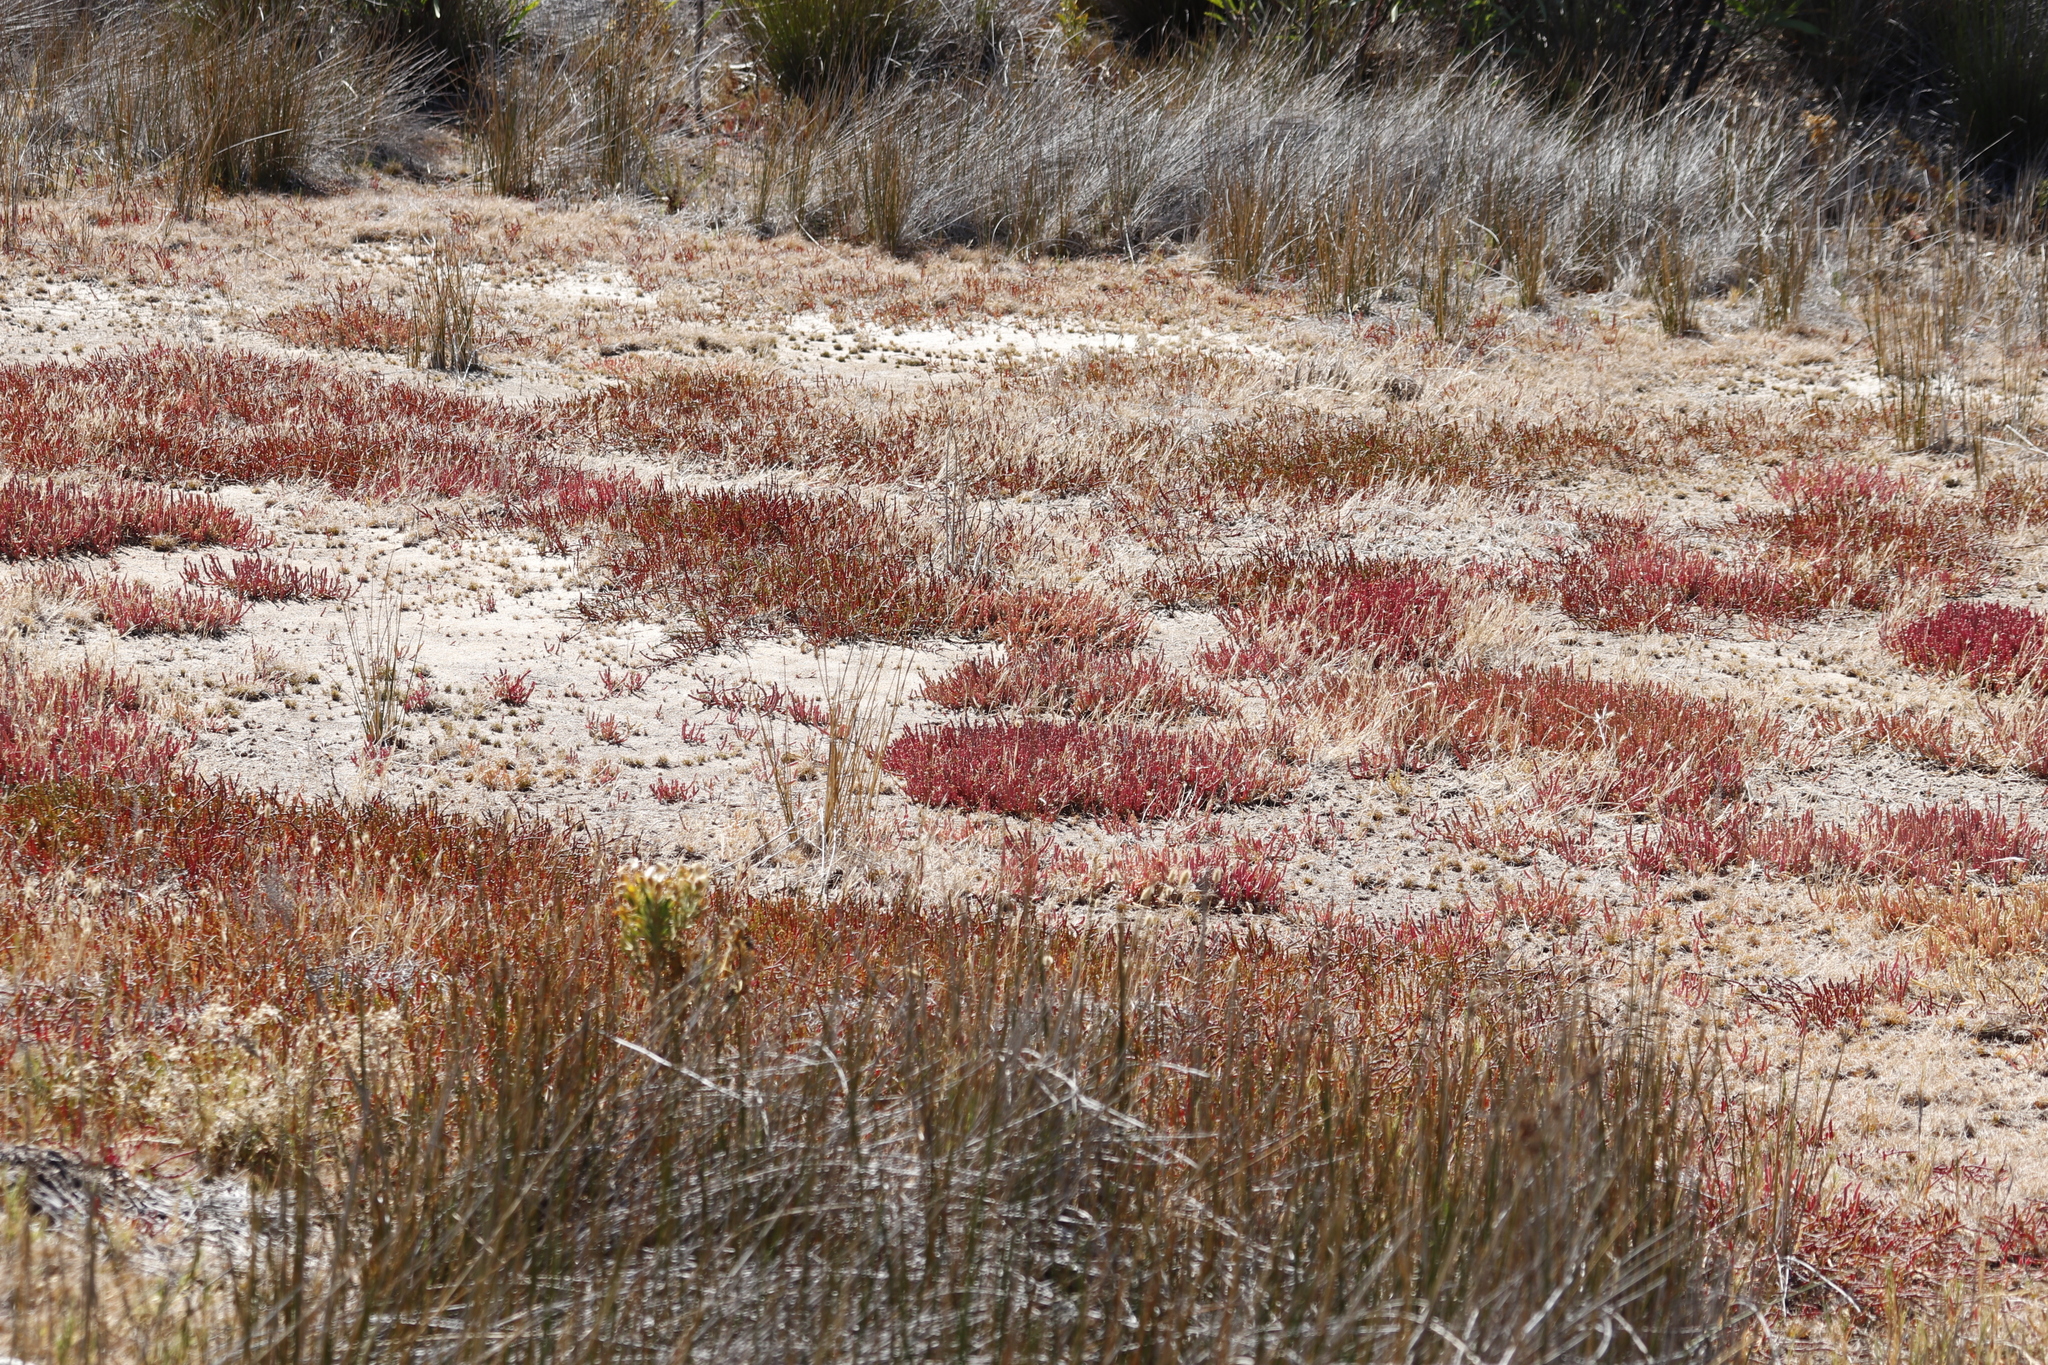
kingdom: Plantae
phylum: Tracheophyta
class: Magnoliopsida
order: Caryophyllales
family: Amaranthaceae
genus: Salicornia
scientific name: Salicornia natalensis
